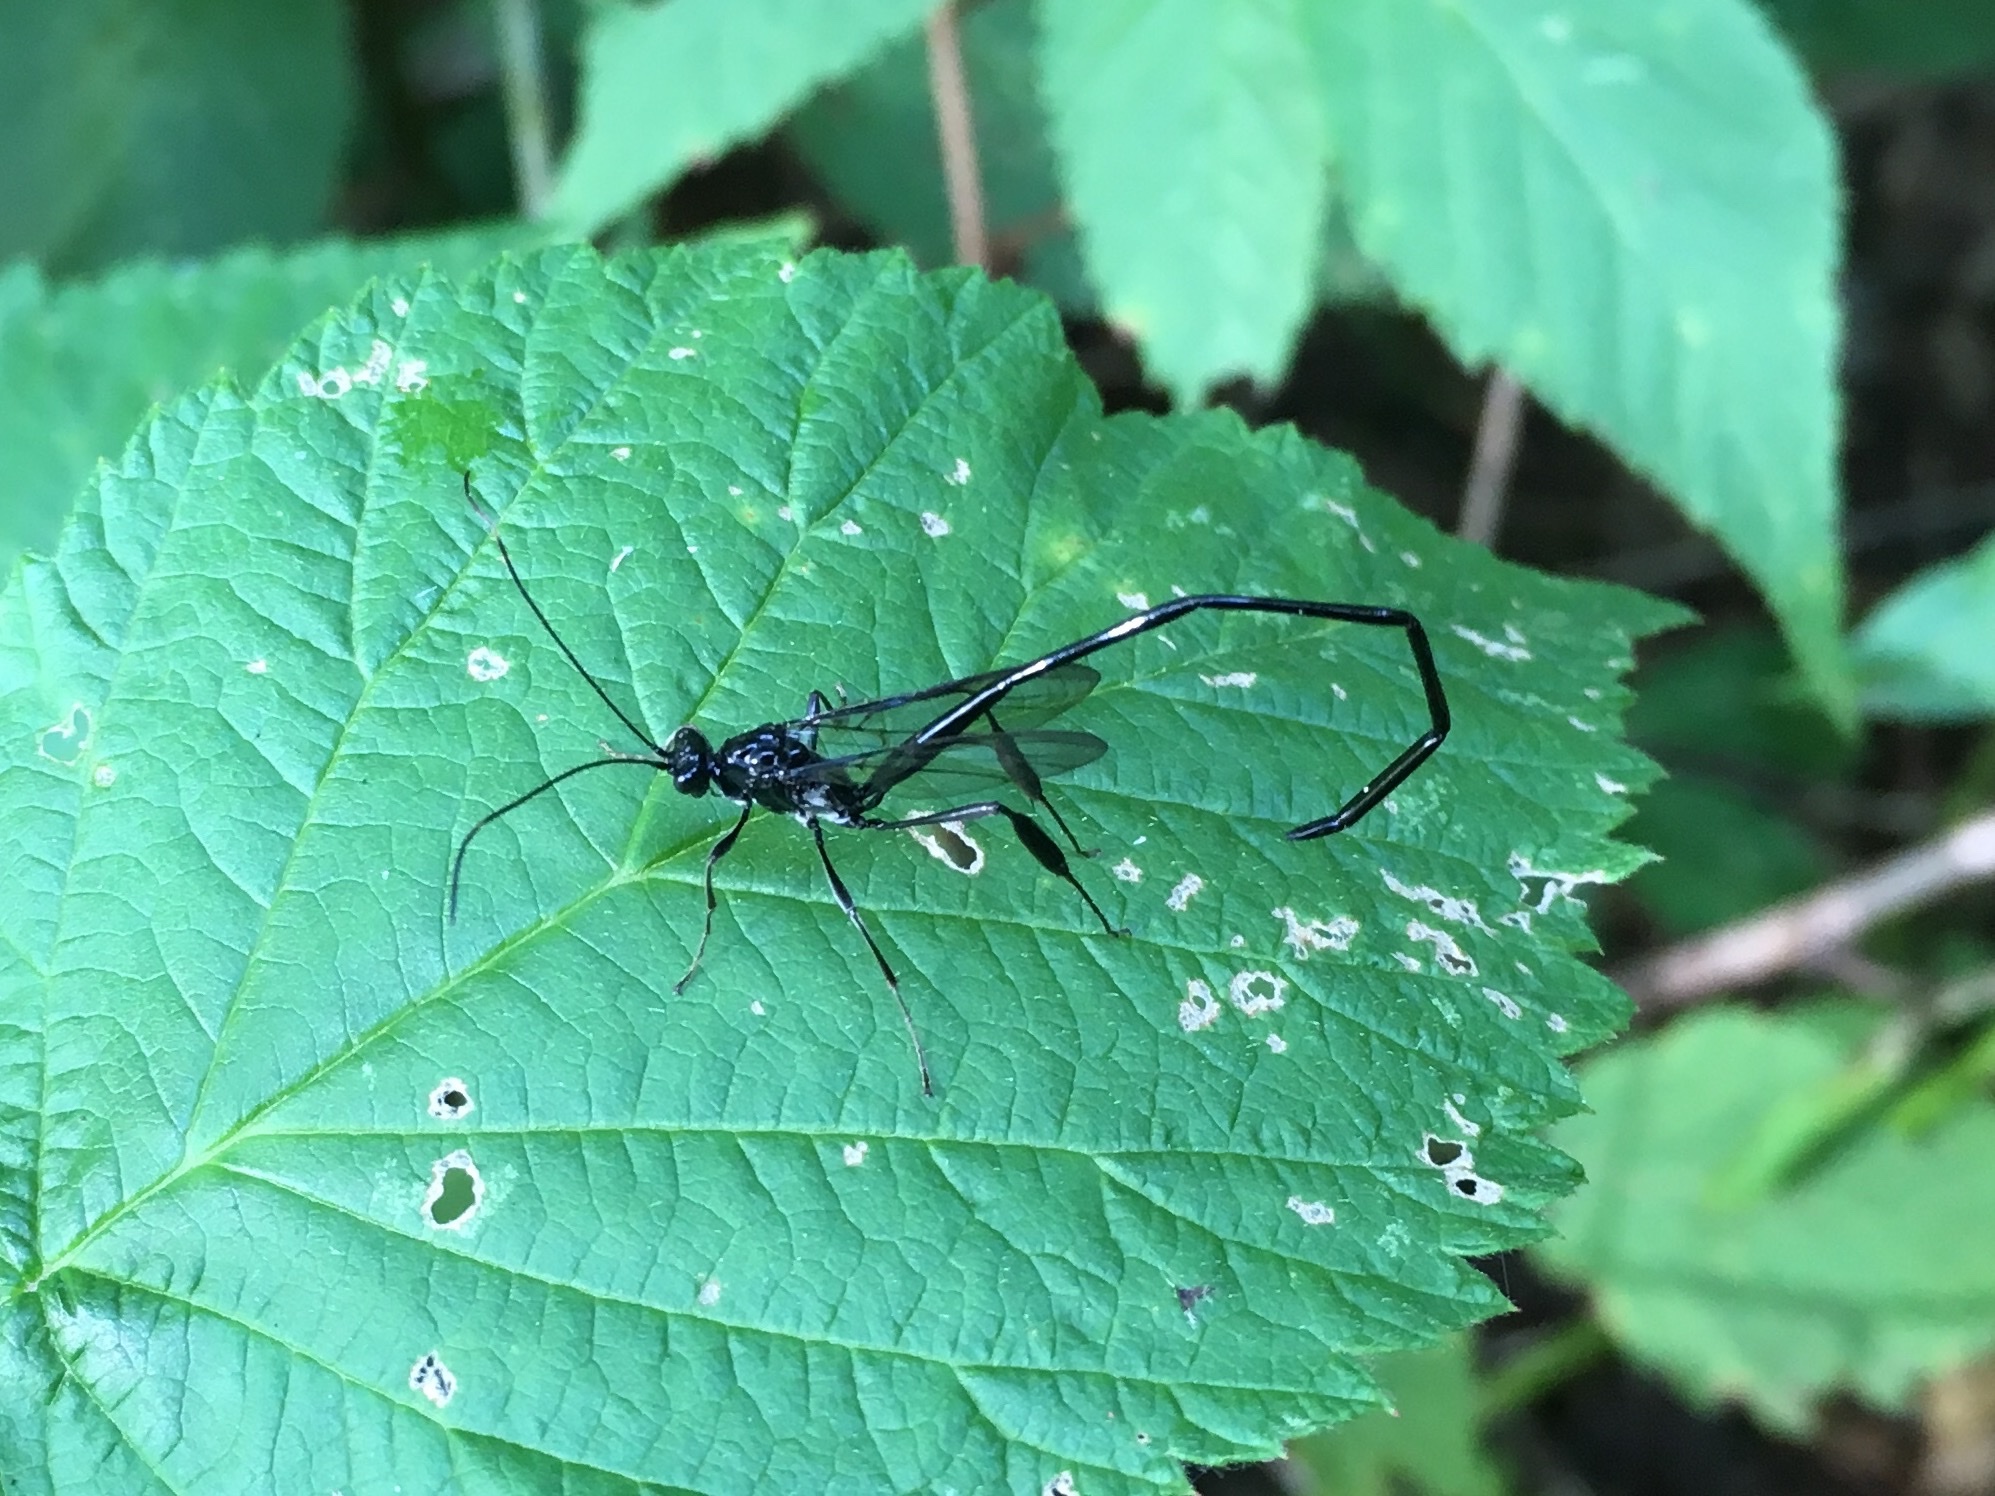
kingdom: Animalia
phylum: Arthropoda
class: Insecta
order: Hymenoptera
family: Pelecinidae
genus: Pelecinus
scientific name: Pelecinus polyturator
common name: American pelecinid wasp
